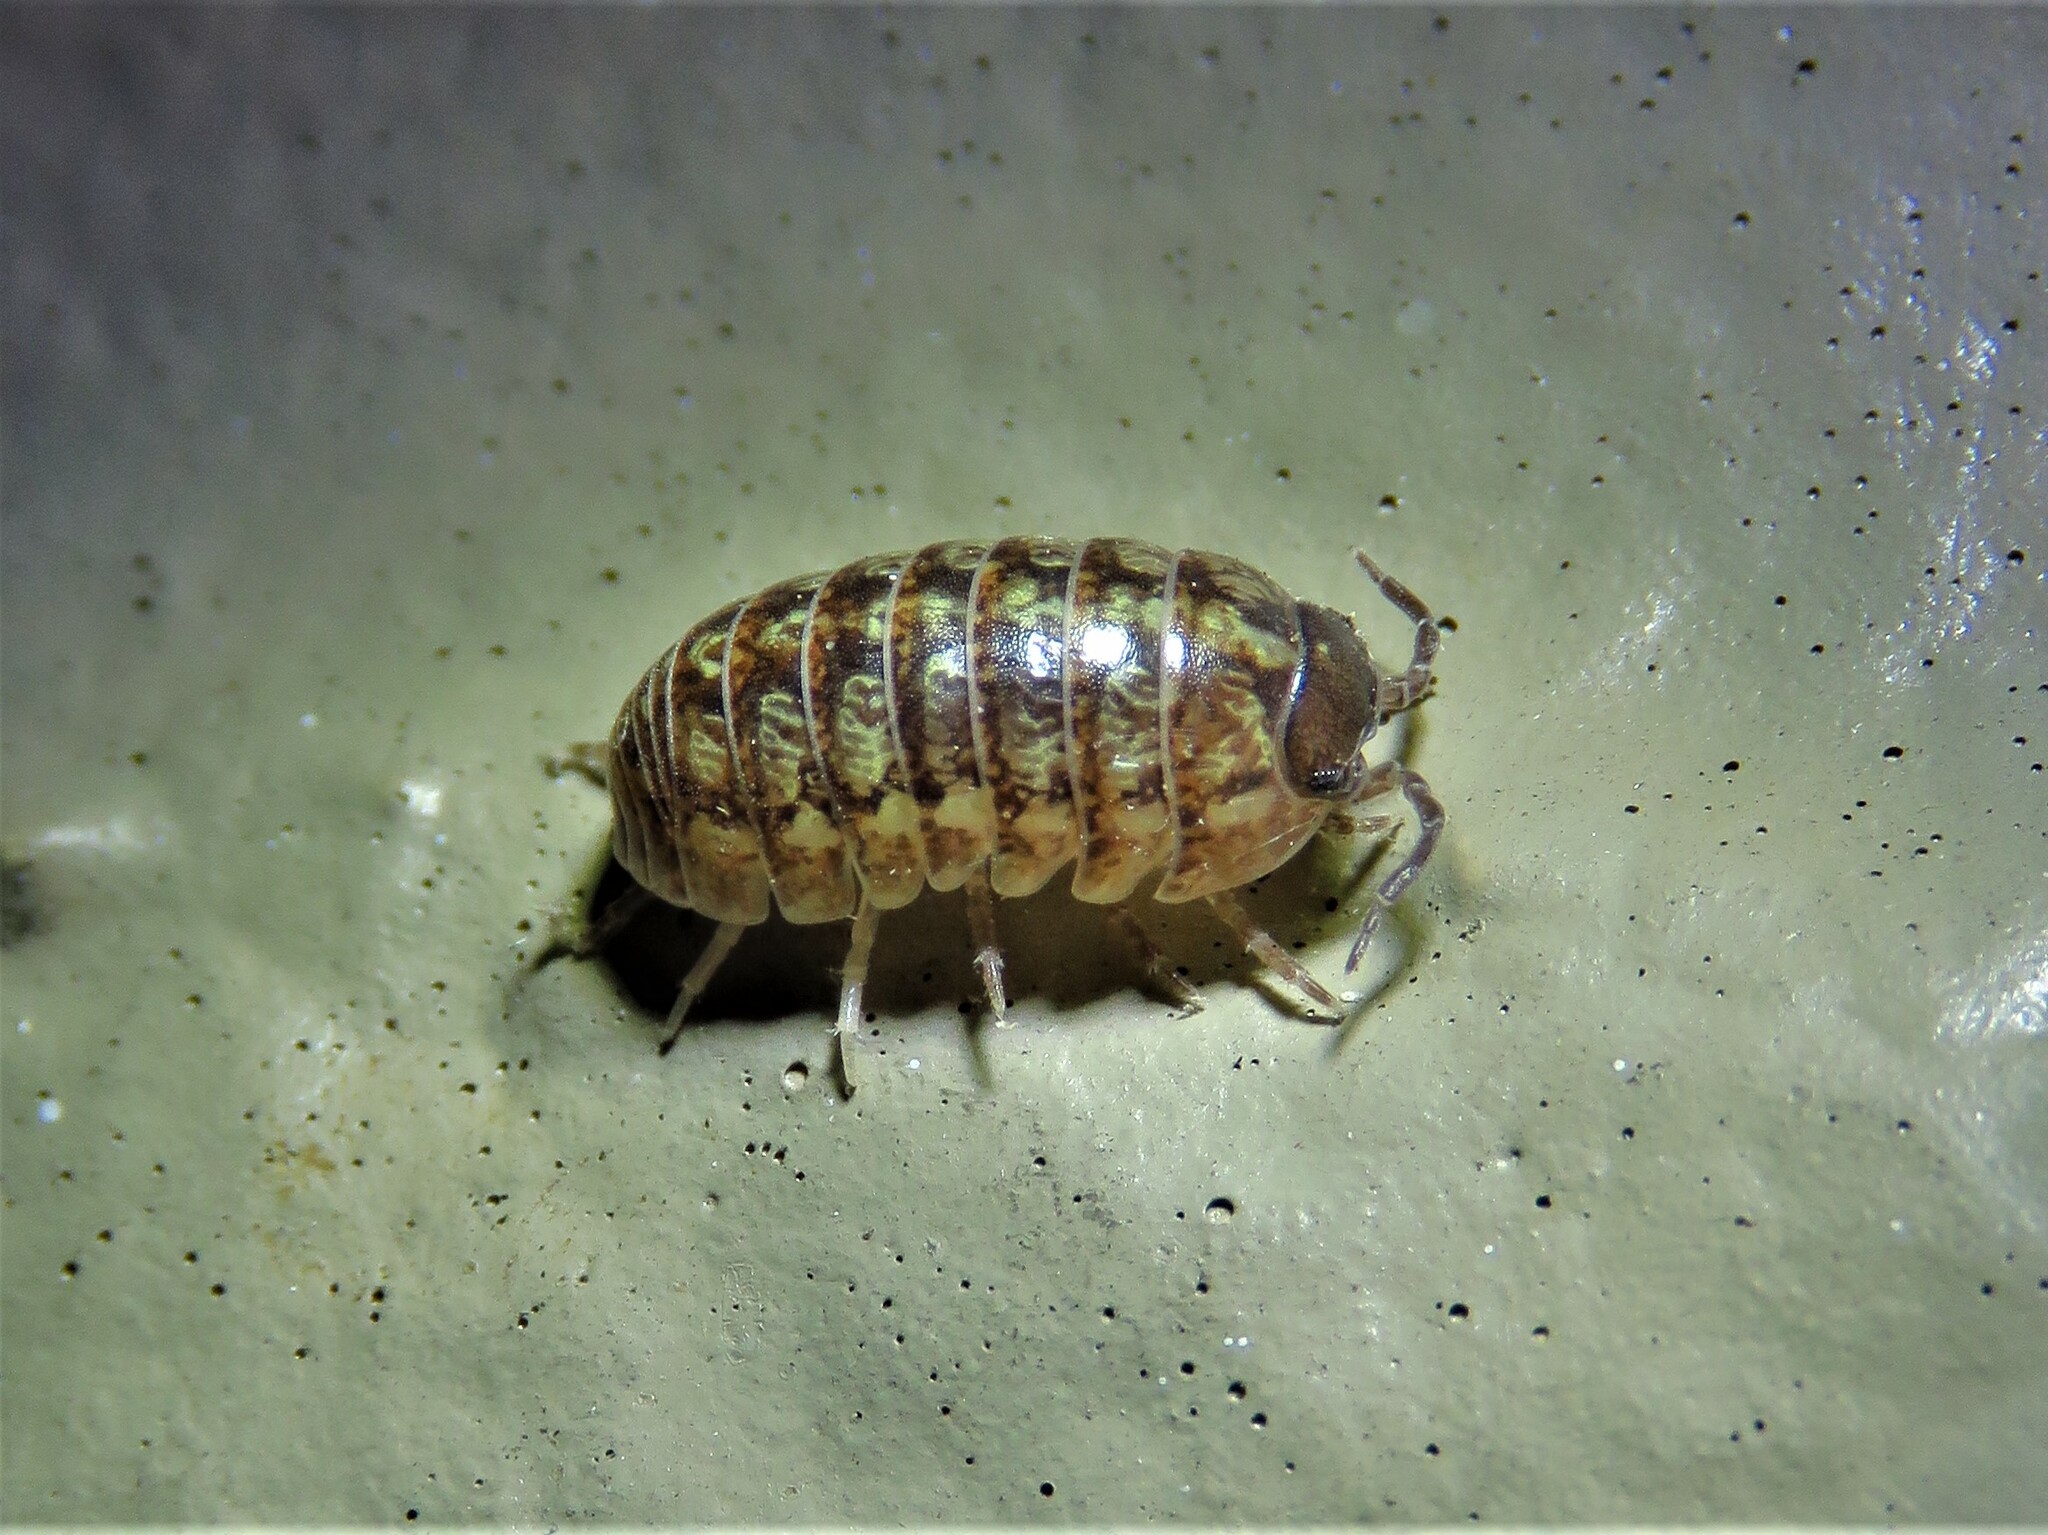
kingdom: Animalia
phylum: Arthropoda
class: Malacostraca
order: Isopoda
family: Armadillidiidae
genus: Armadillidium
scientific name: Armadillidium vulgare
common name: Common pill woodlouse
